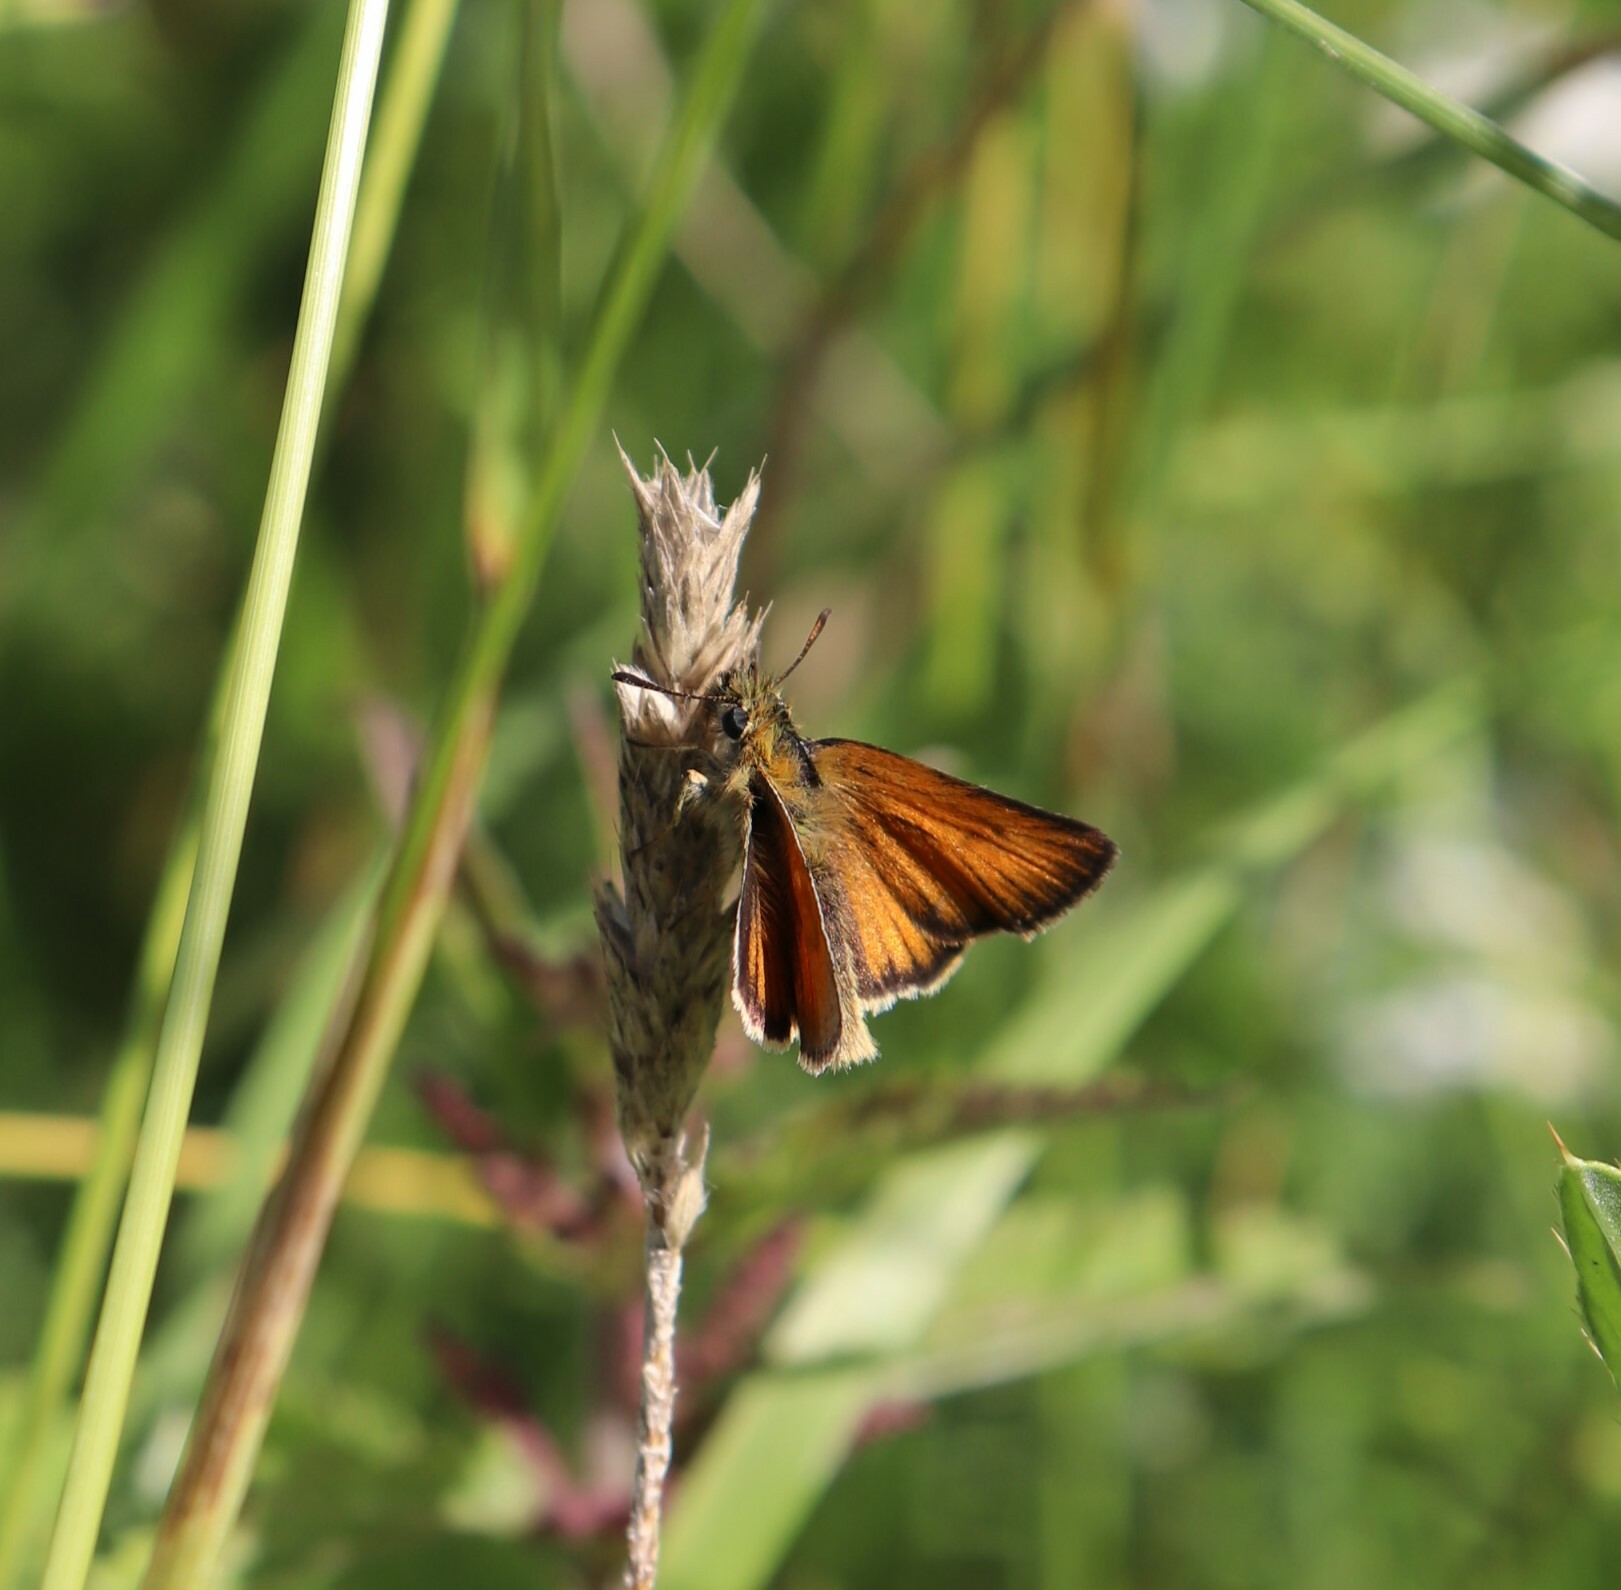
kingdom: Animalia
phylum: Arthropoda
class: Insecta
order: Lepidoptera
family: Hesperiidae
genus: Thymelicus
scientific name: Thymelicus lineola
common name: Essex skipper
